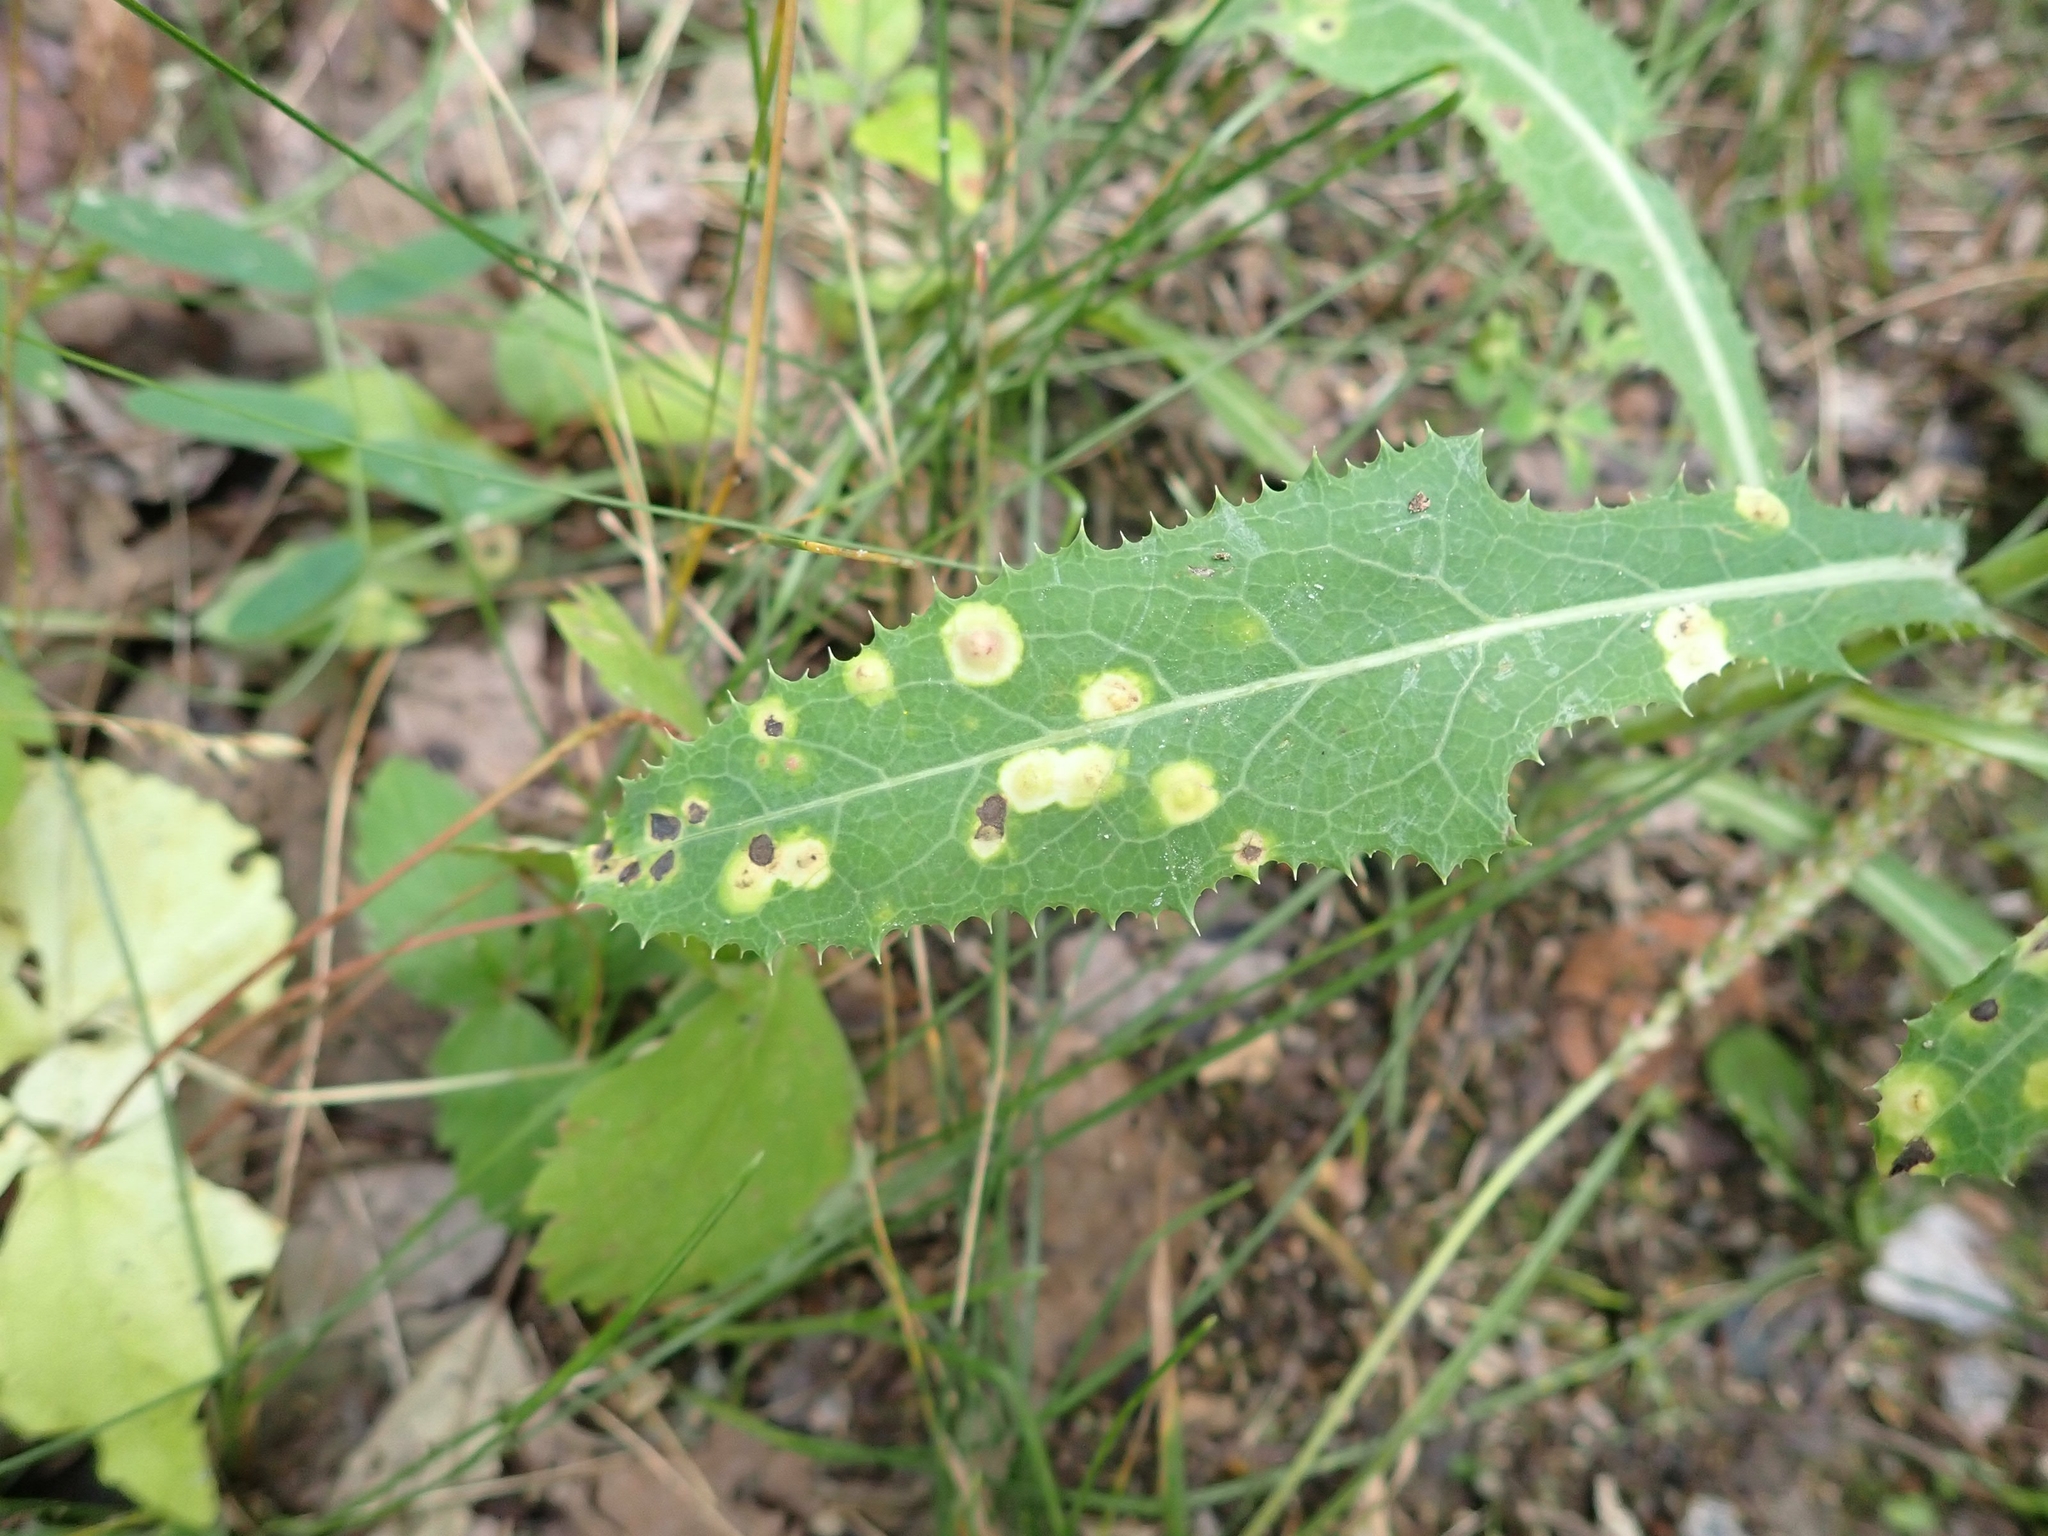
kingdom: Animalia
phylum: Arthropoda
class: Insecta
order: Diptera
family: Cecidomyiidae
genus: Cystiphora
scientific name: Cystiphora sonchi
